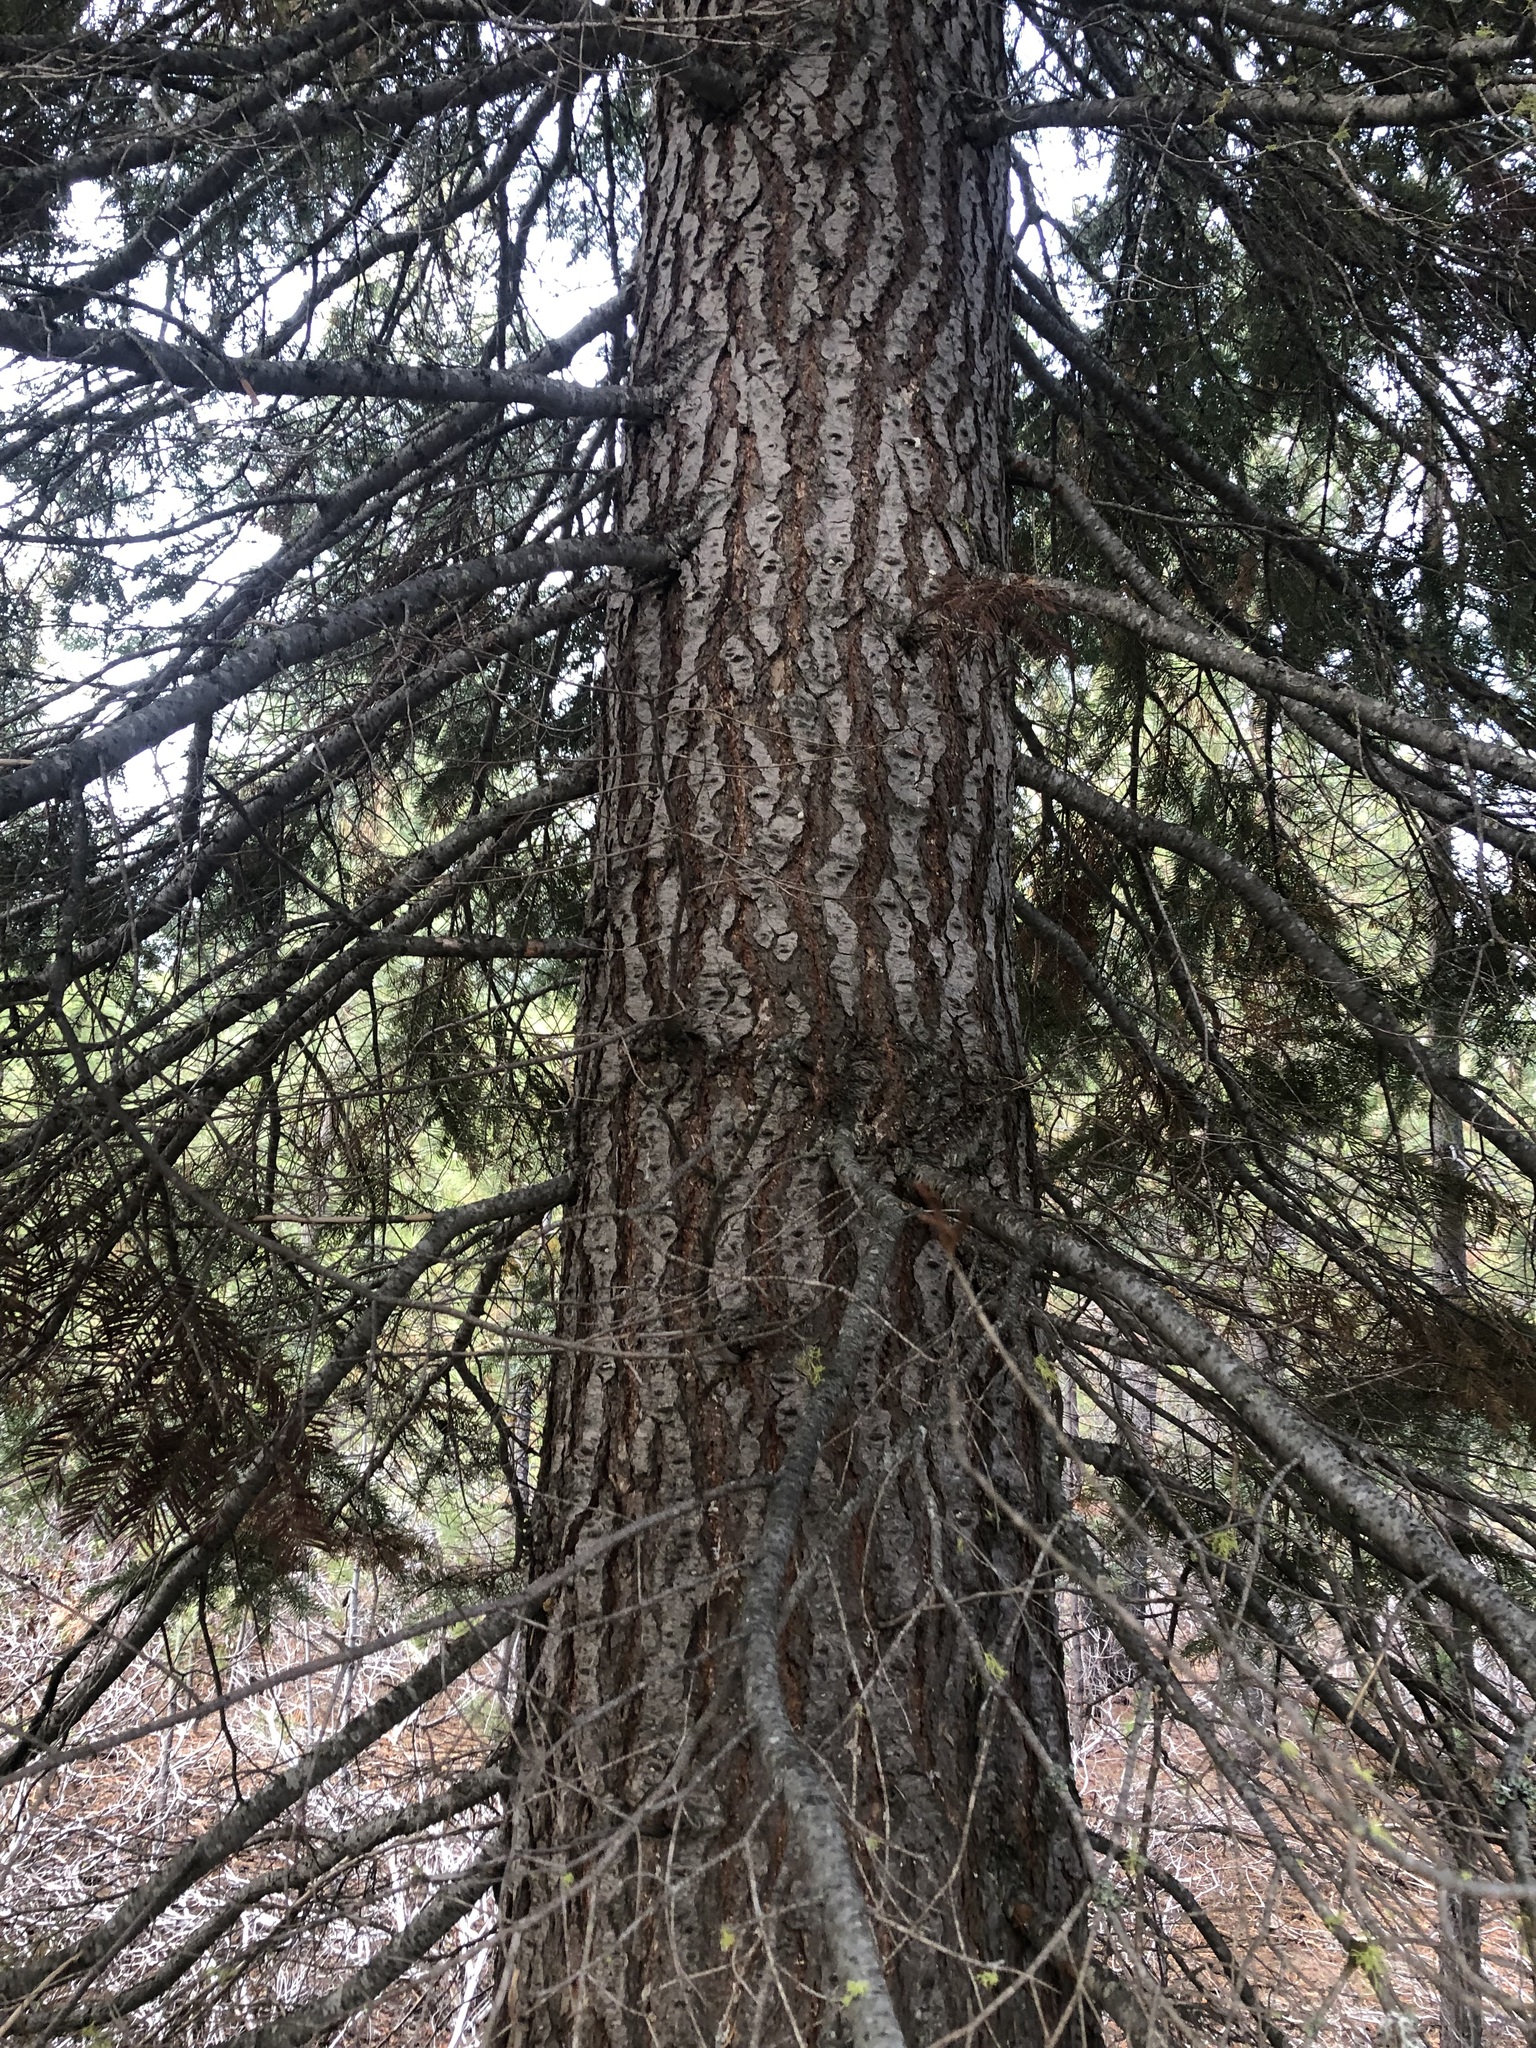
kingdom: Plantae
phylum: Tracheophyta
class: Pinopsida
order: Pinales
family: Pinaceae
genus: Abies
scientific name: Abies concolor
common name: Colorado fir
